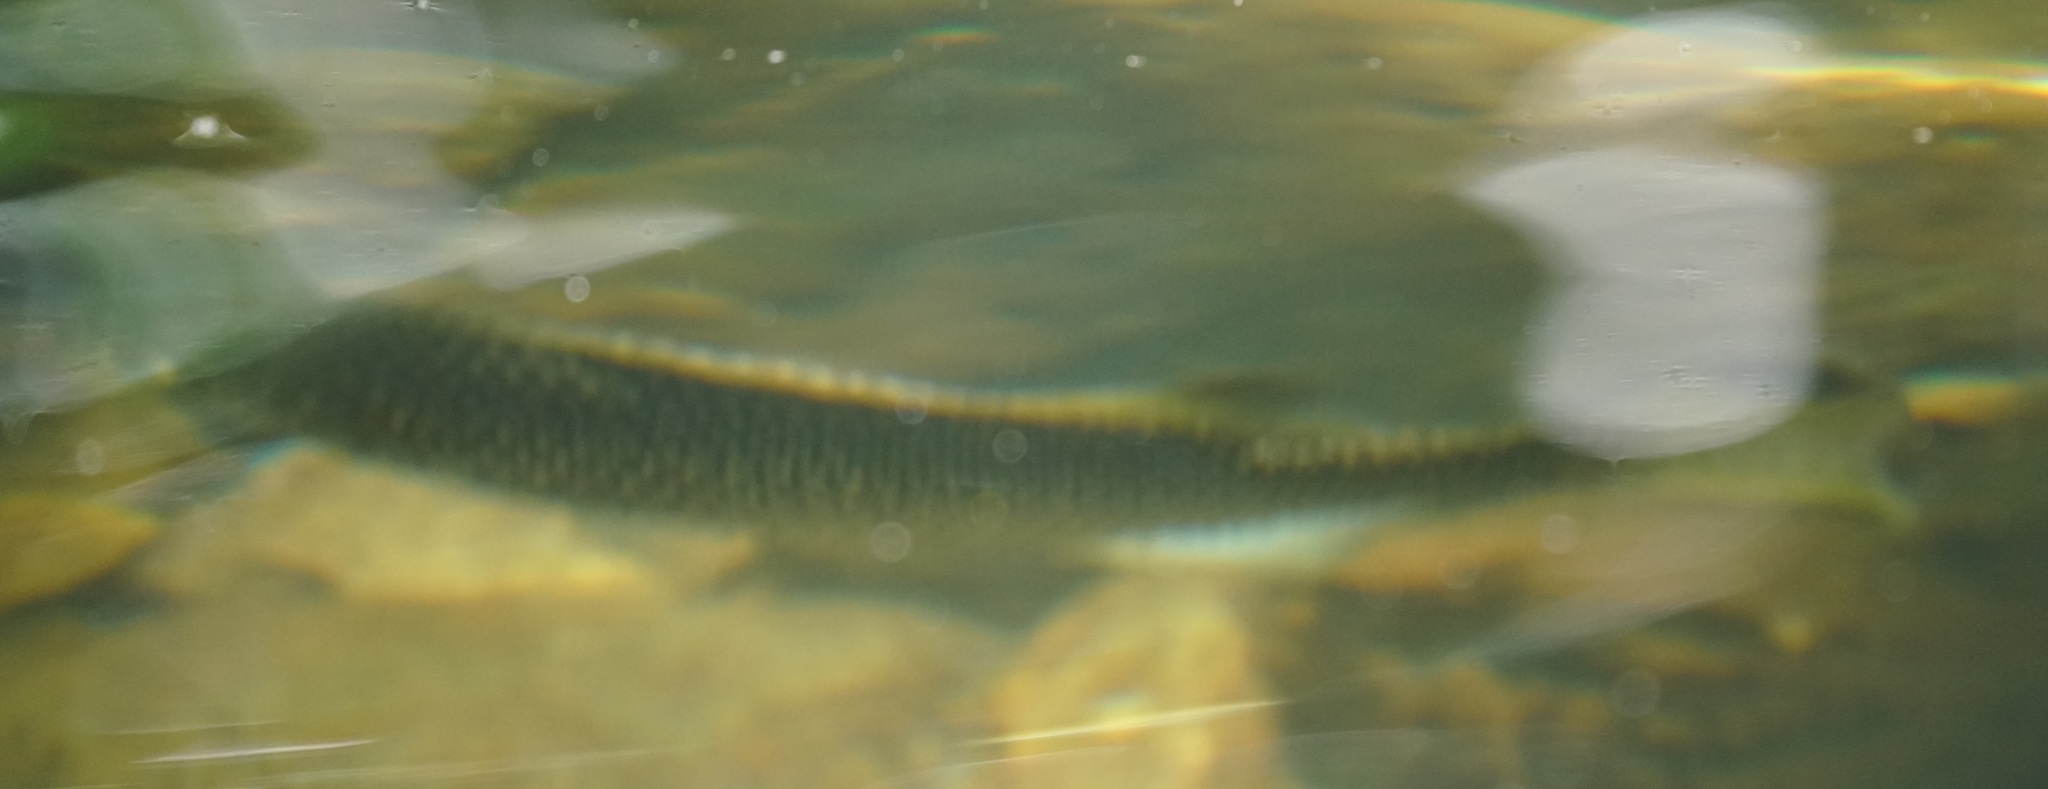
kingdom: Animalia
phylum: Chordata
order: Perciformes
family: Kuhliidae
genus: Kuhlia
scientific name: Kuhlia rupestris
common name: Rock flagtail
